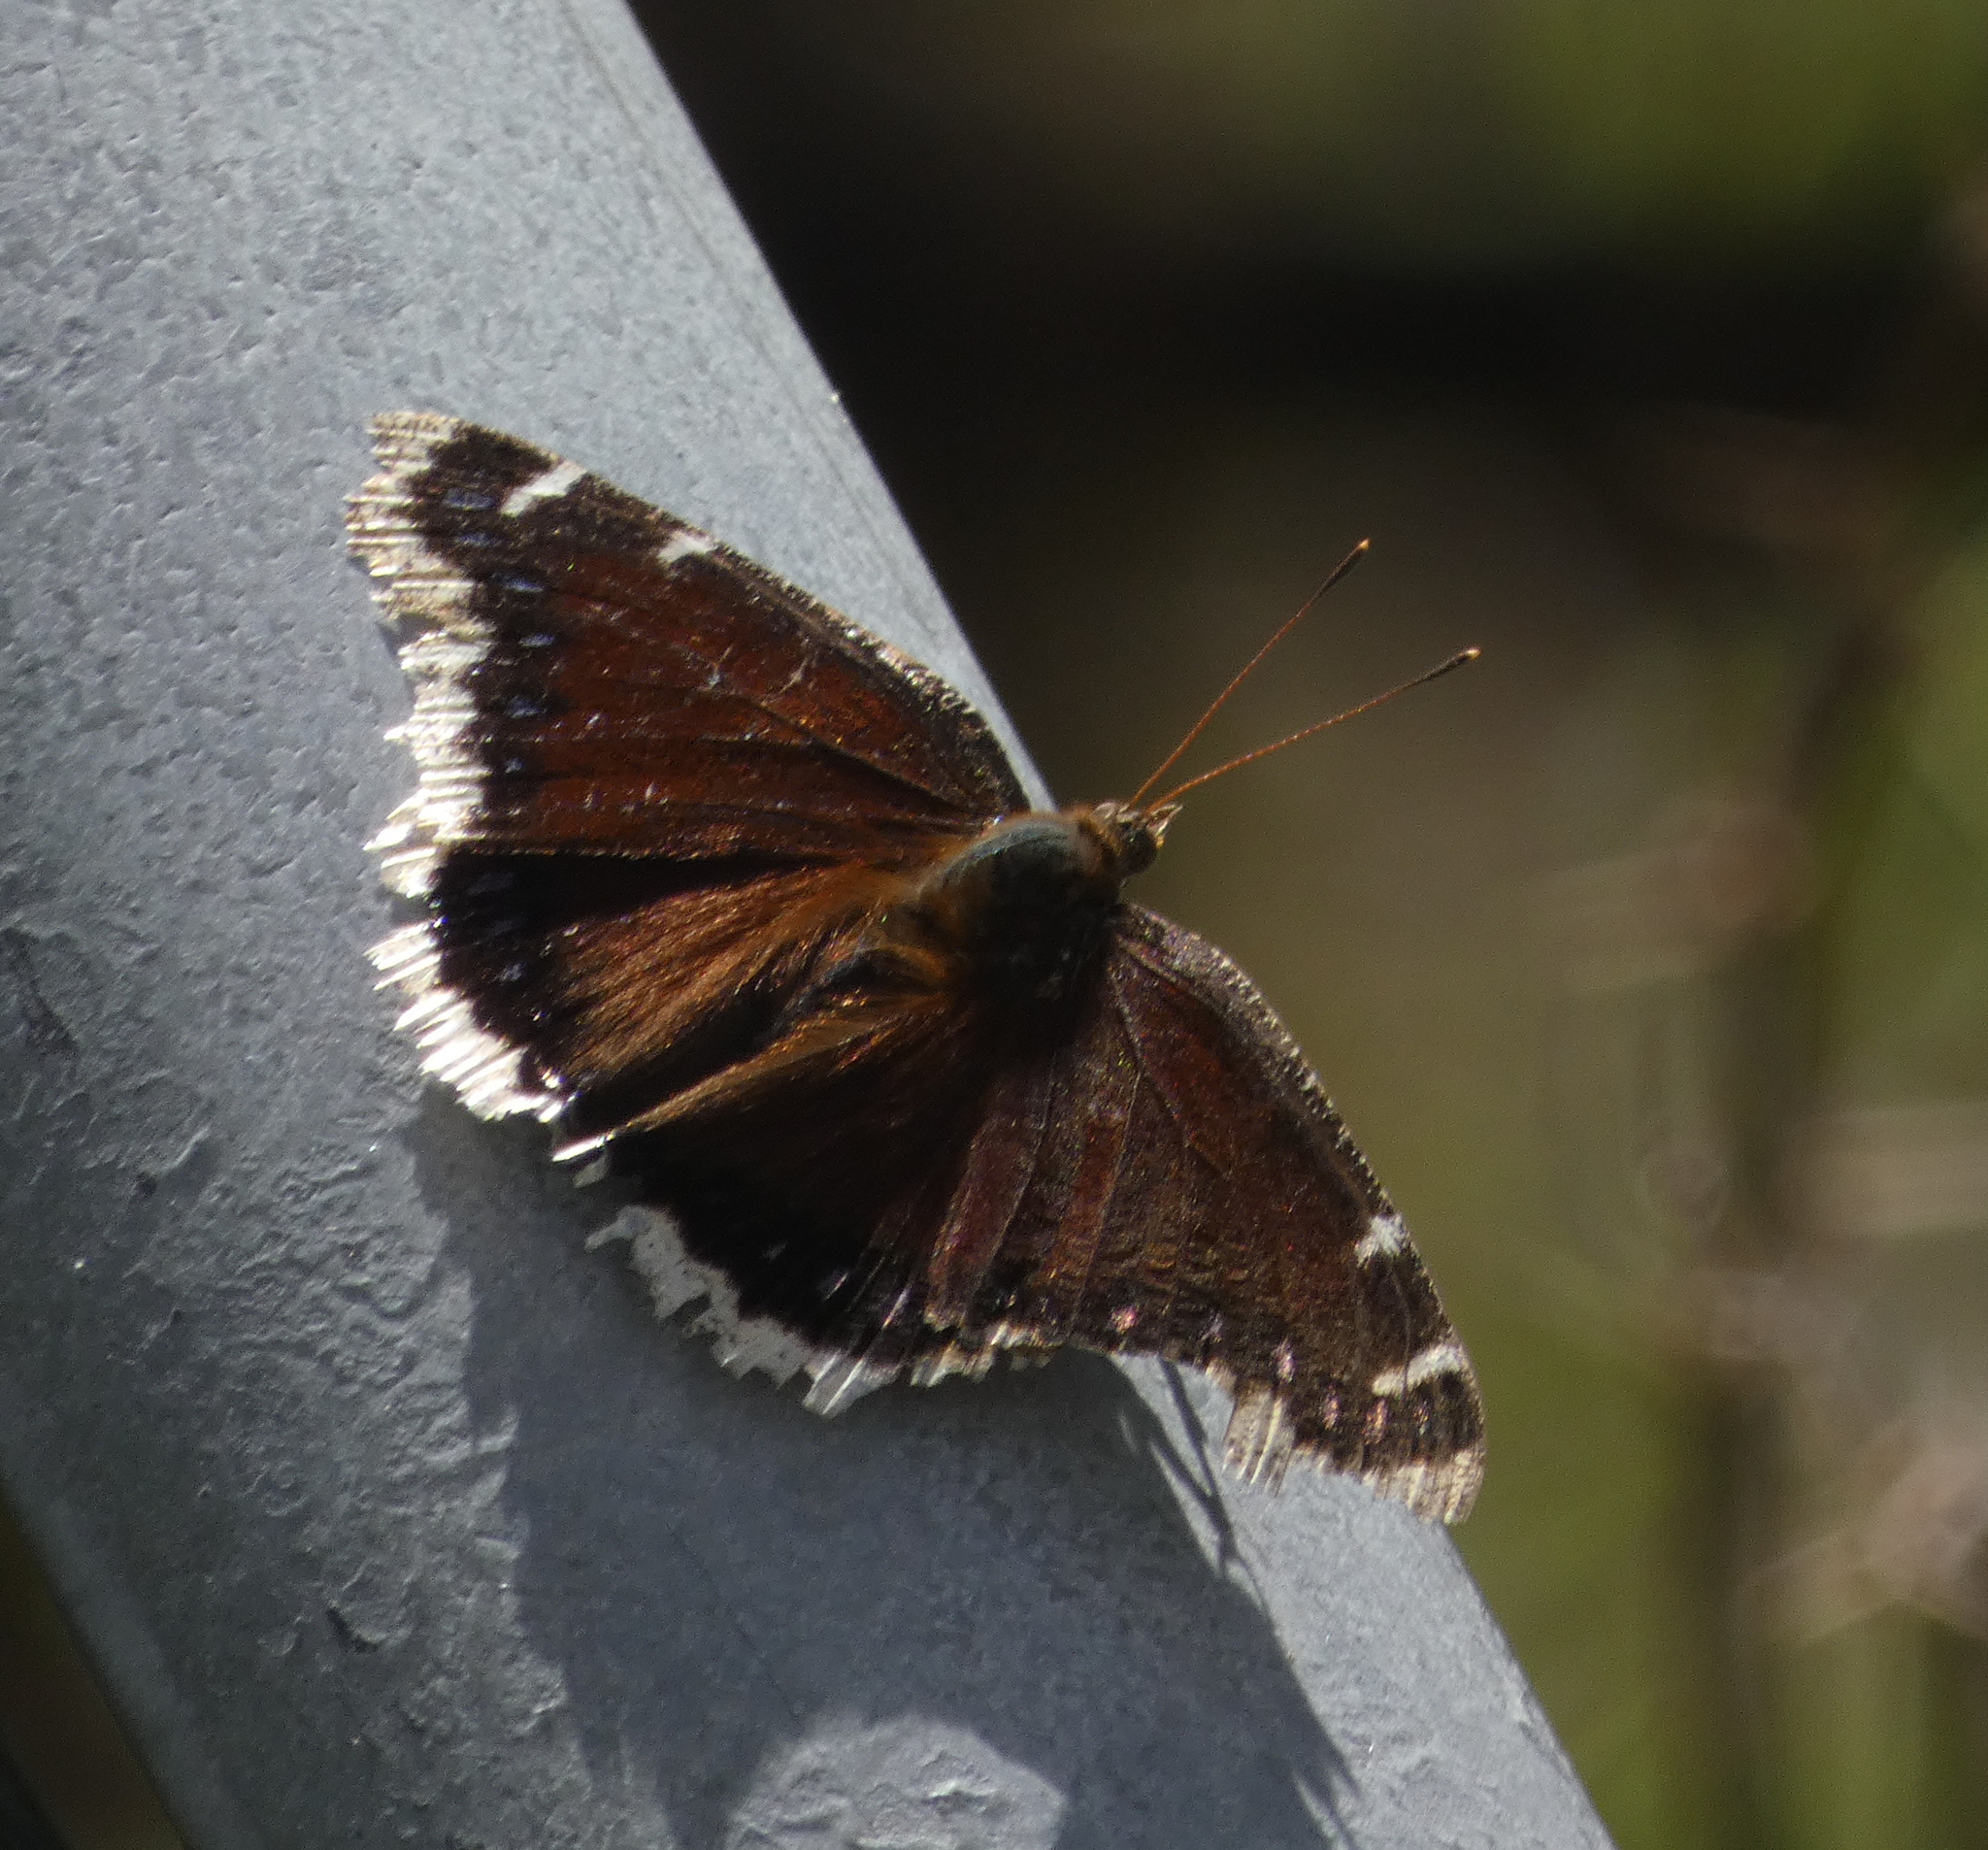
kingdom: Animalia
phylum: Arthropoda
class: Insecta
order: Lepidoptera
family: Nymphalidae
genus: Nymphalis
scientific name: Nymphalis antiopa
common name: Camberwell beauty
